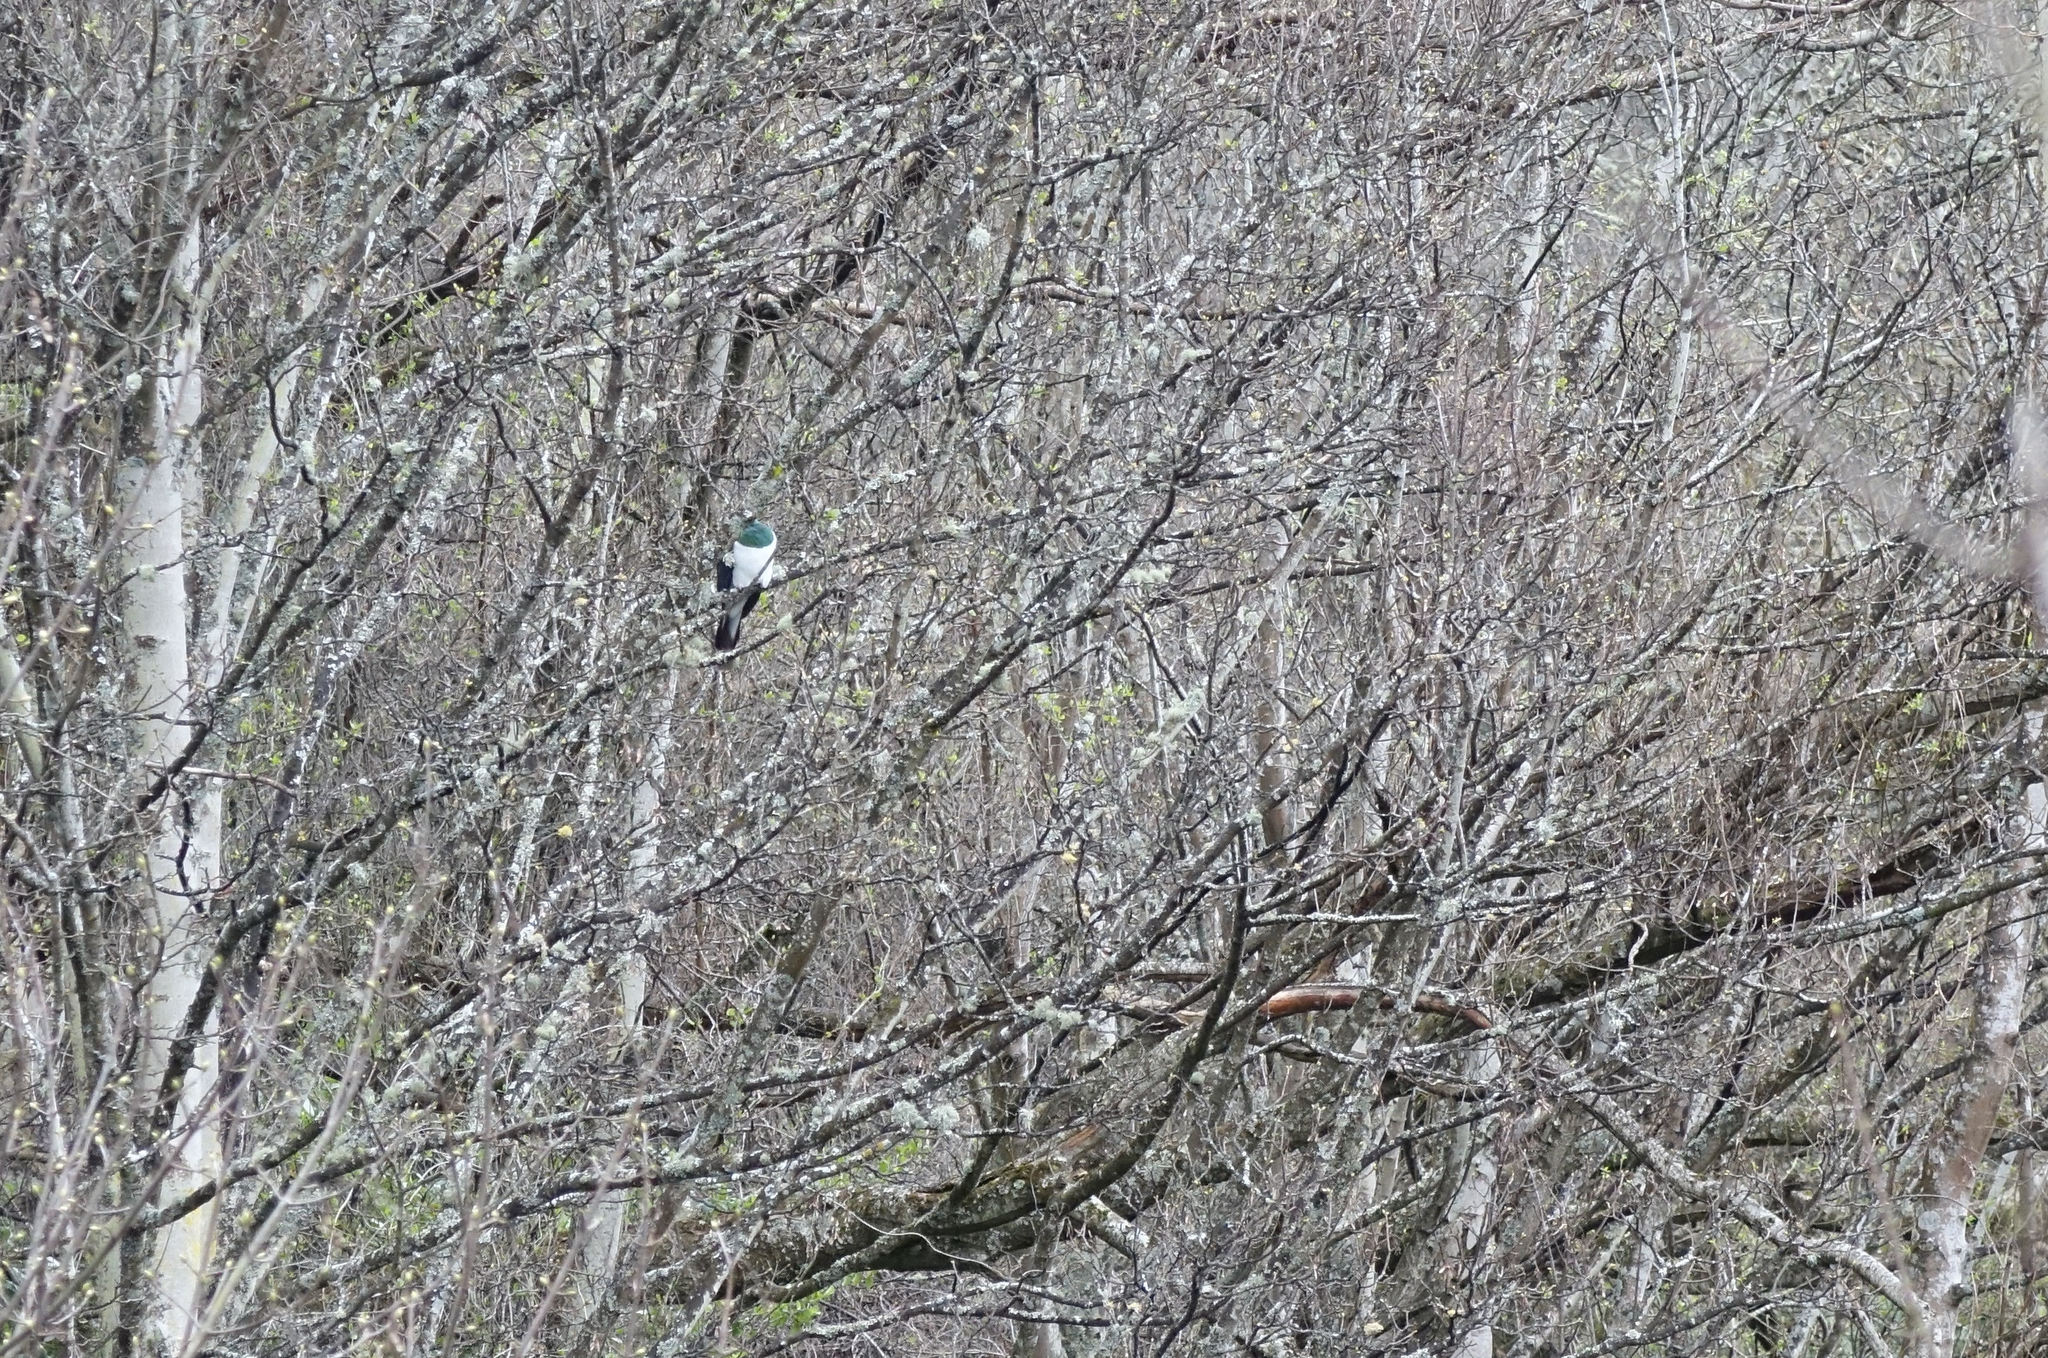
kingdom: Animalia
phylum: Chordata
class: Aves
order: Columbiformes
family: Columbidae
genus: Hemiphaga
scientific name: Hemiphaga novaeseelandiae
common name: New zealand pigeon
